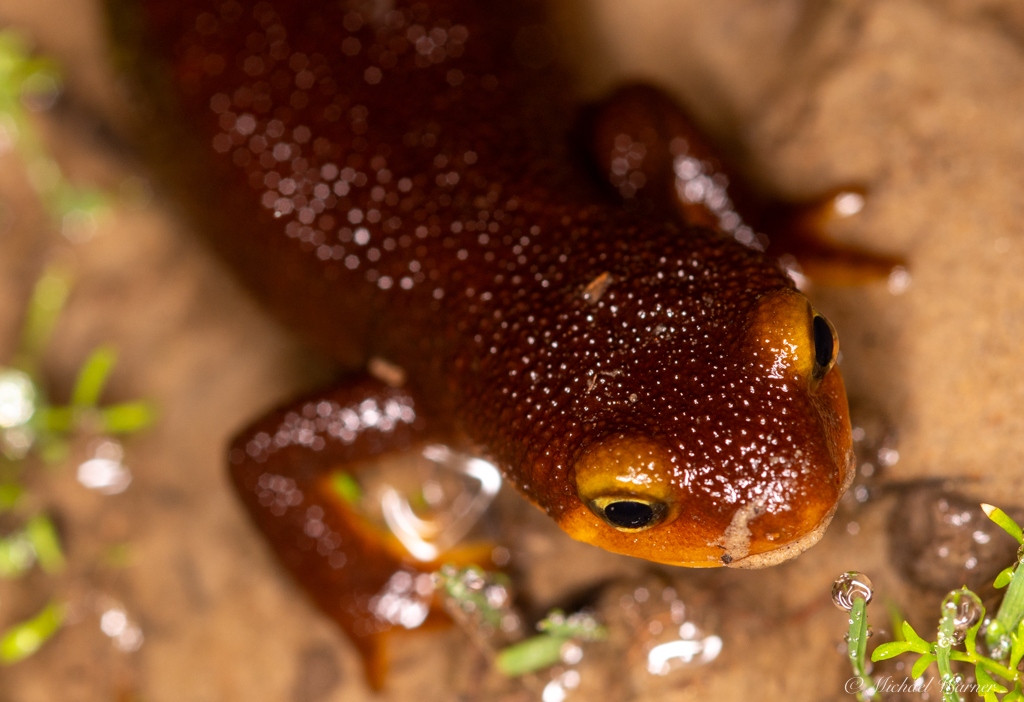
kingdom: Animalia
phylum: Chordata
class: Amphibia
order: Caudata
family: Salamandridae
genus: Taricha
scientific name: Taricha torosa
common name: California newt
